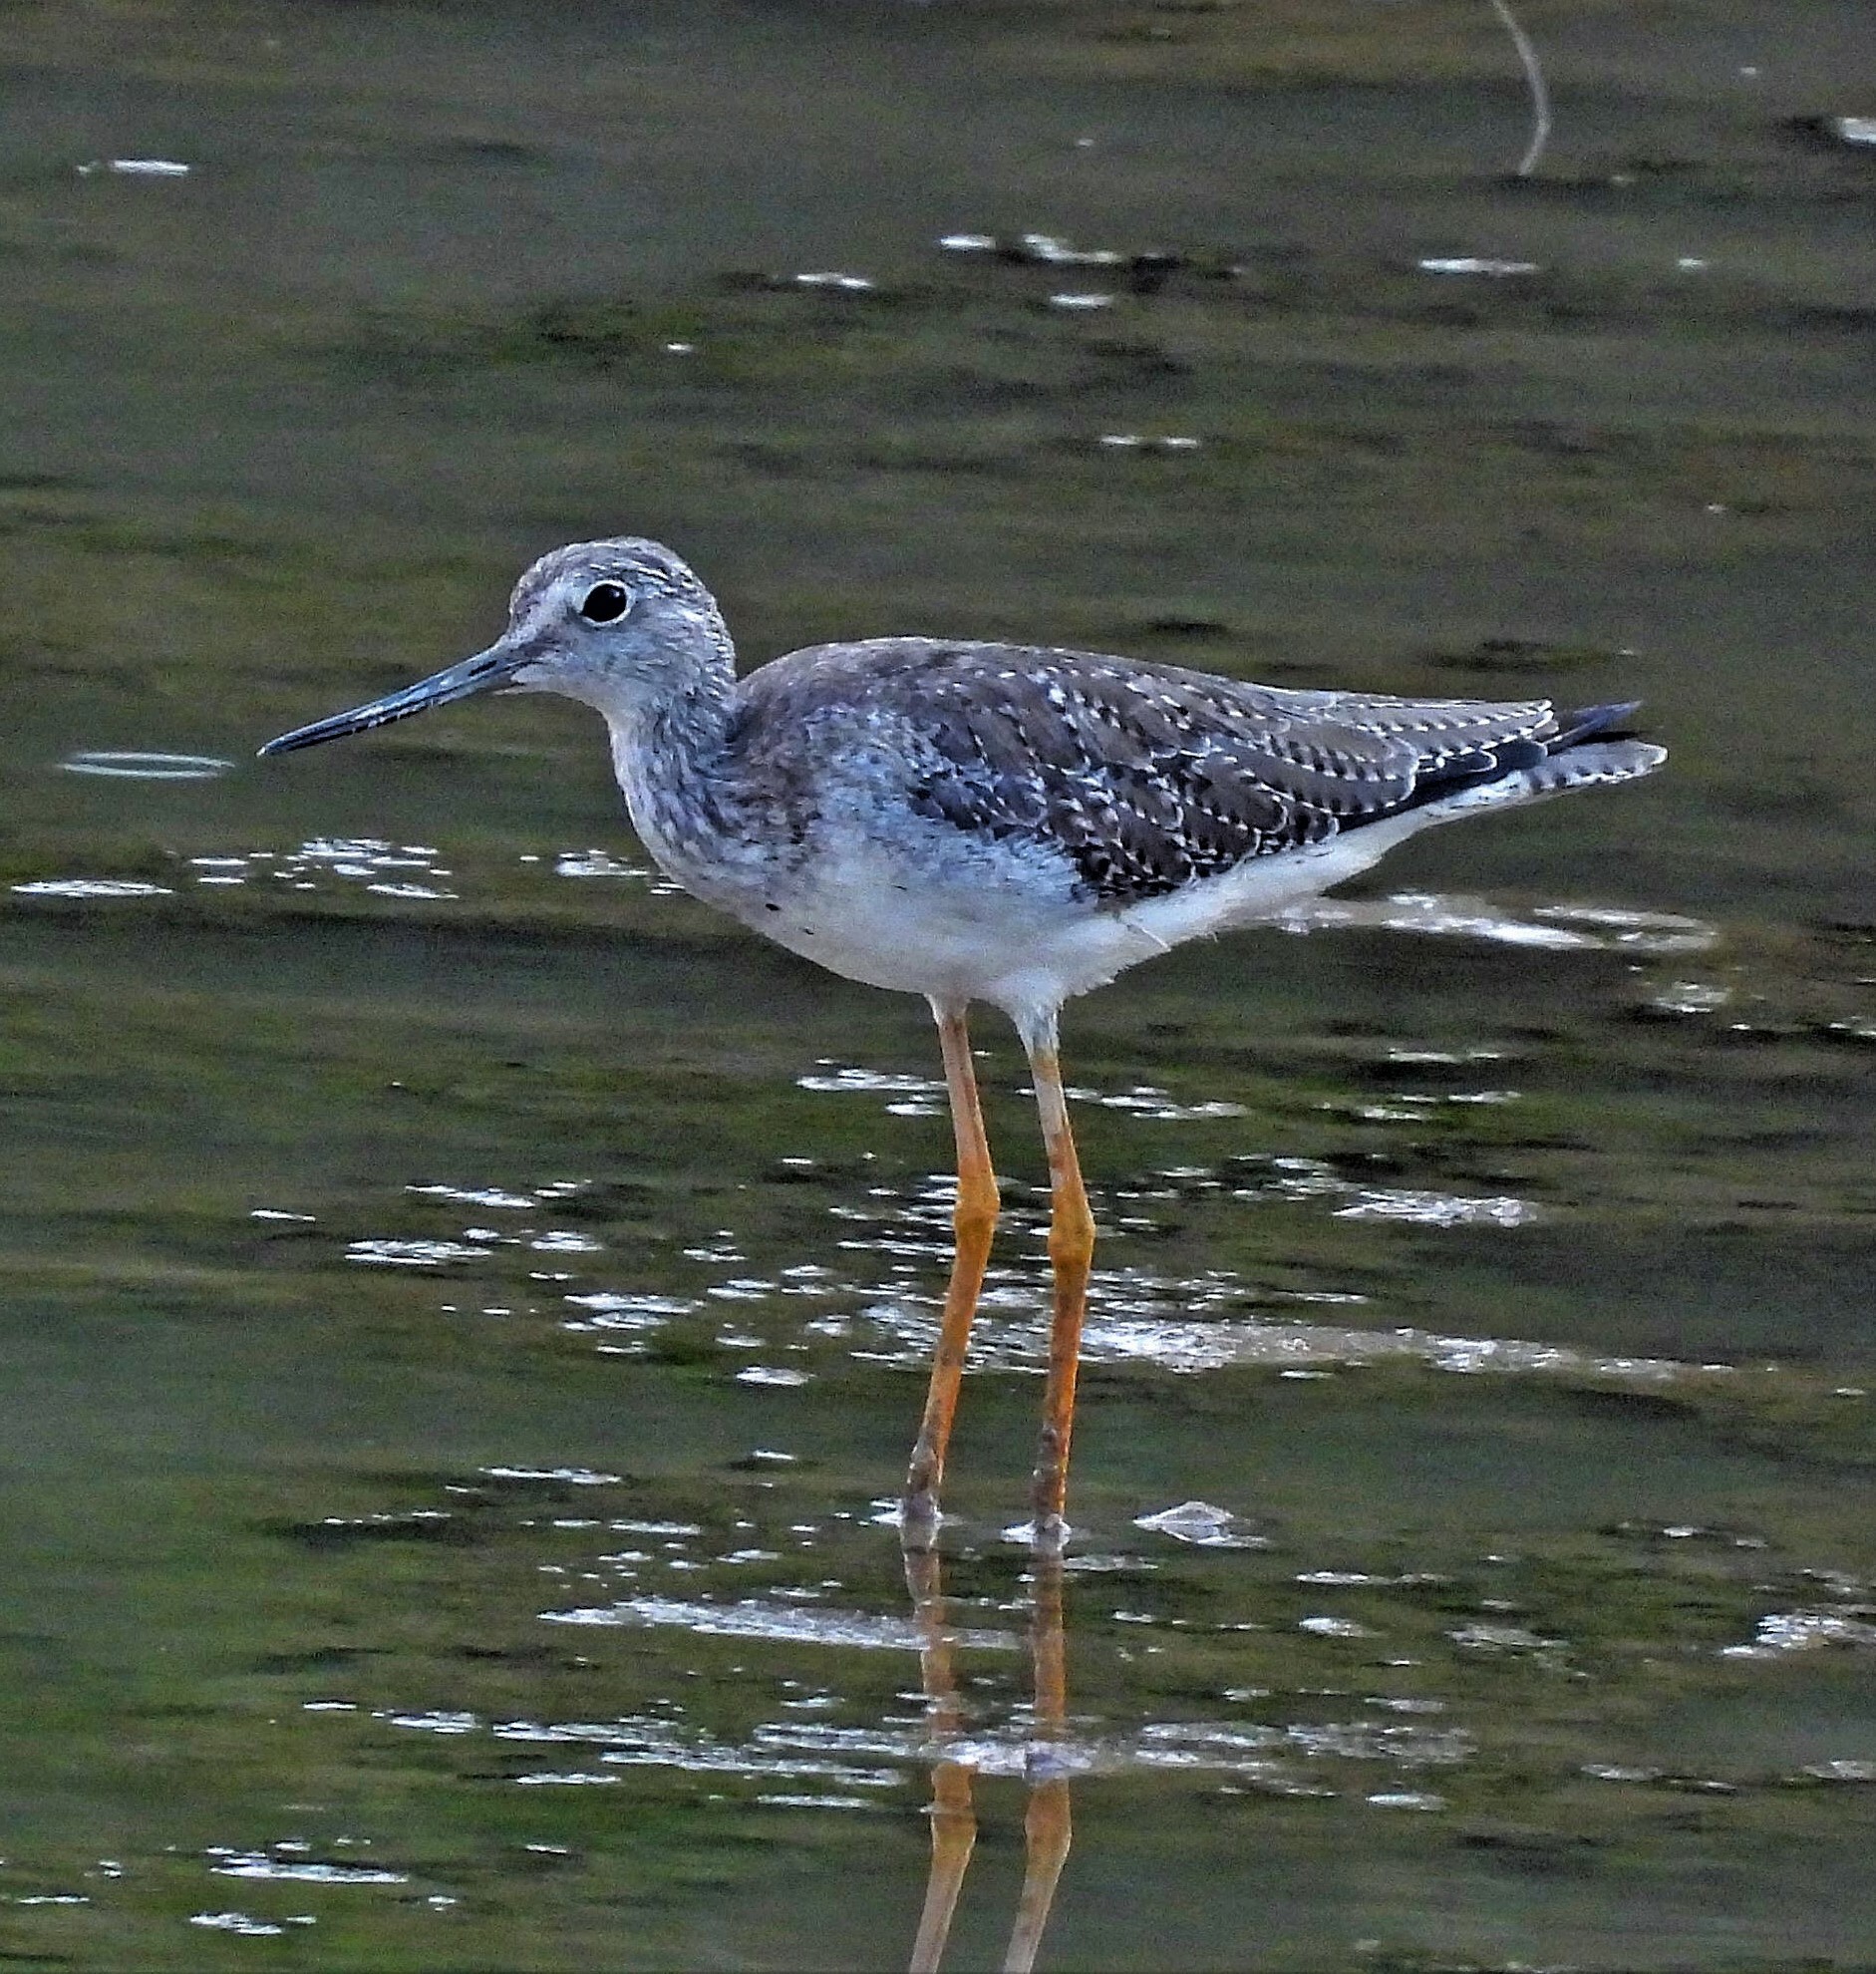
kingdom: Animalia
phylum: Chordata
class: Aves
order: Charadriiformes
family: Scolopacidae
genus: Tringa
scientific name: Tringa melanoleuca
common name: Greater yellowlegs
